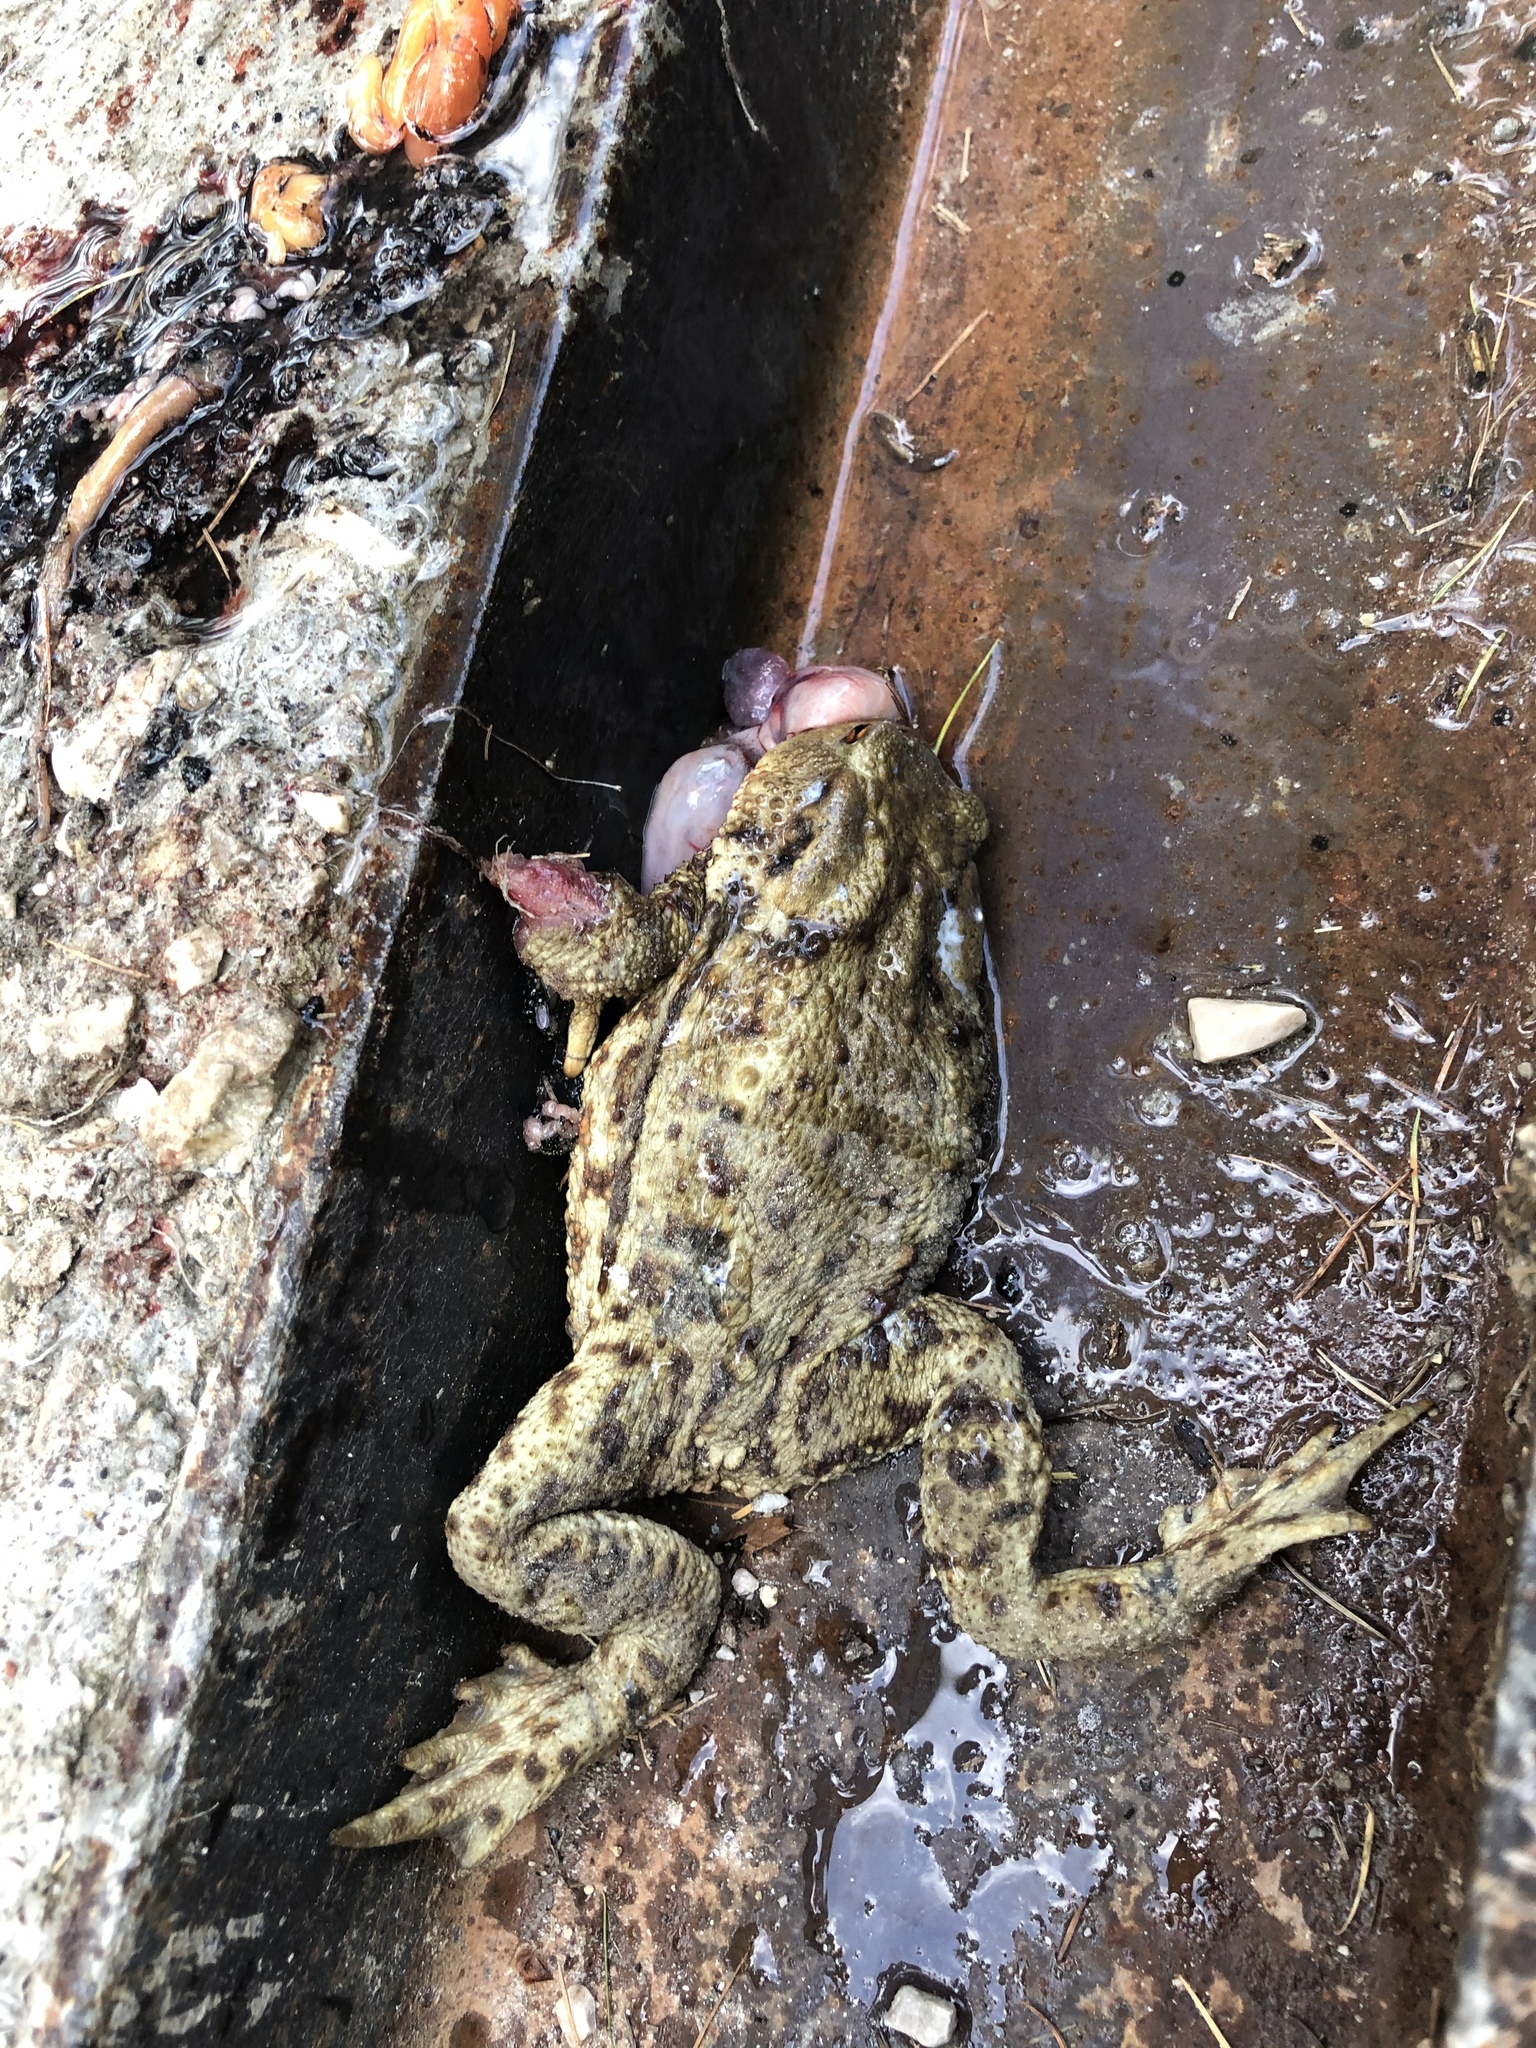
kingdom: Animalia
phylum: Chordata
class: Amphibia
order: Anura
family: Bufonidae
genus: Bufo
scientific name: Bufo bufo
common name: Common toad
